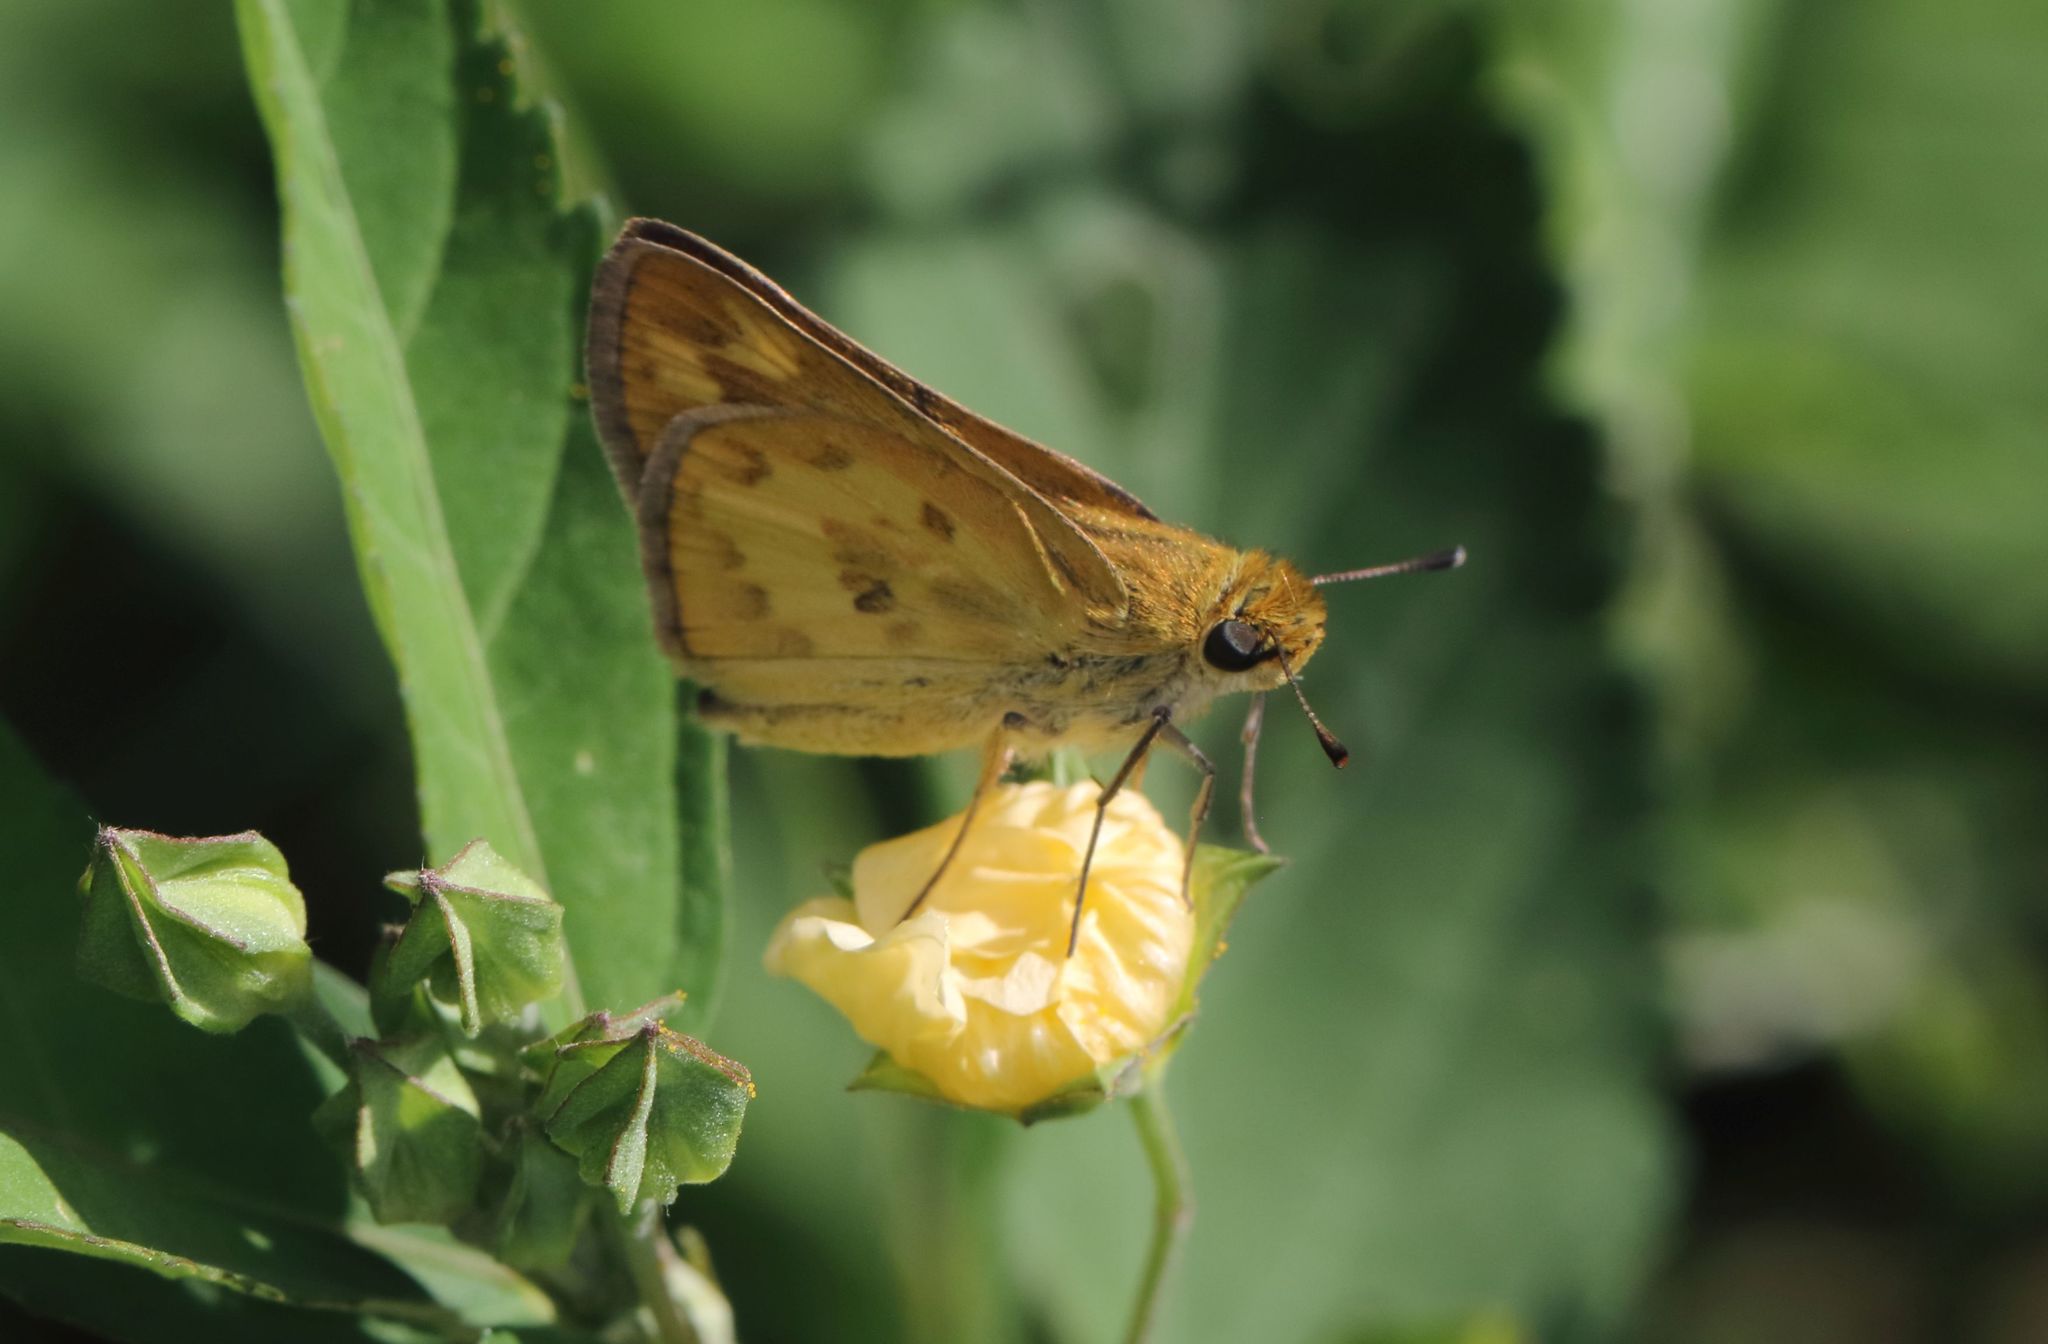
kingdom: Animalia
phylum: Arthropoda
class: Insecta
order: Hymenoptera
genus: Afrogenes
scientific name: Afrogenes
